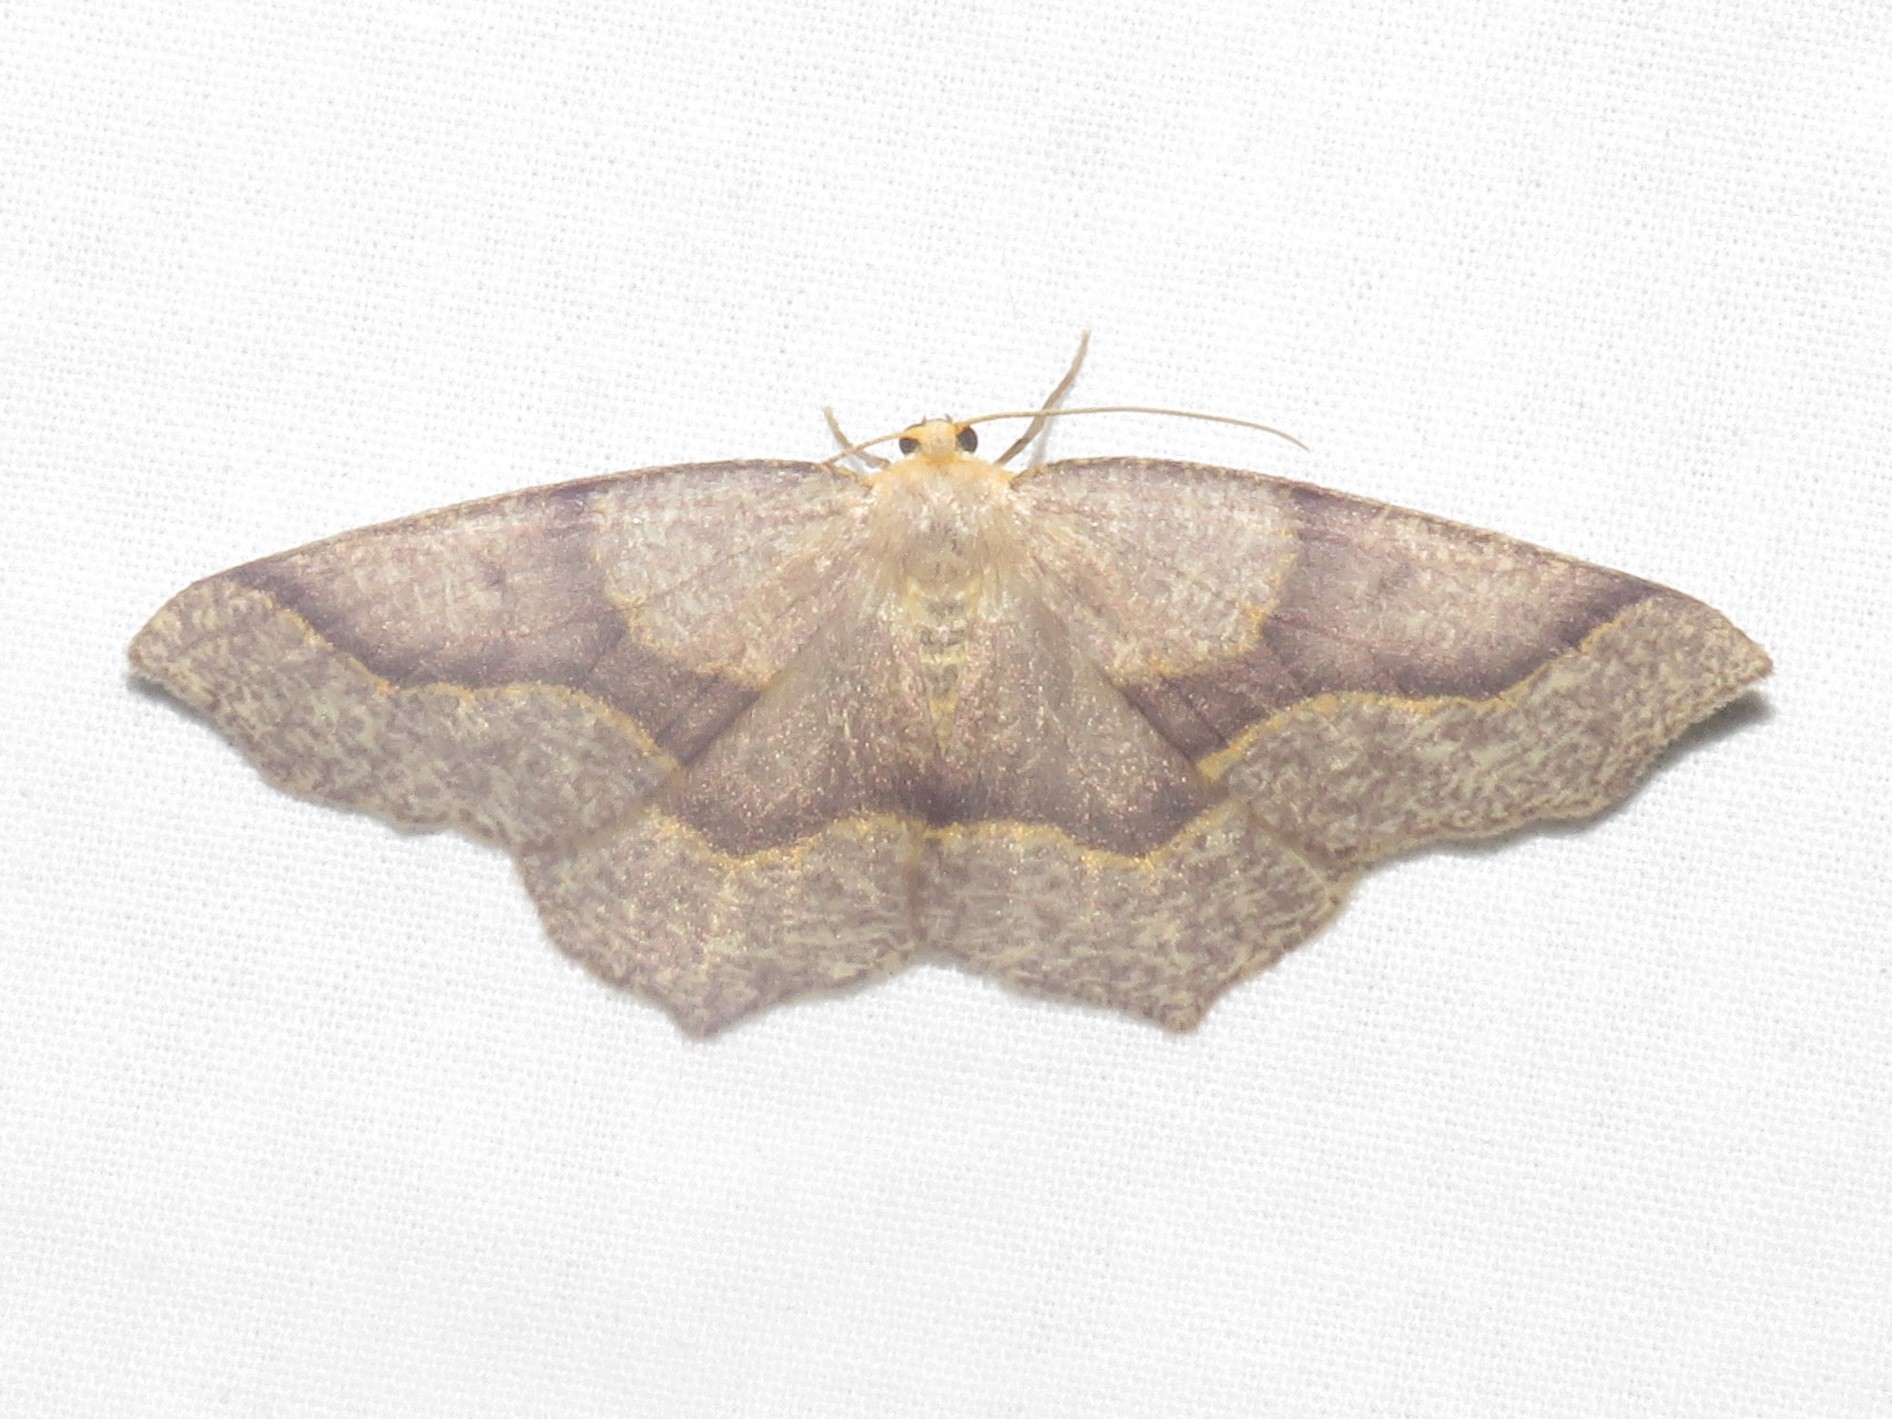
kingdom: Animalia
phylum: Arthropoda
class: Insecta
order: Lepidoptera
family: Geometridae
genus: Lambdina
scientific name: Lambdina fiscellaria
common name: Hemlock looper
